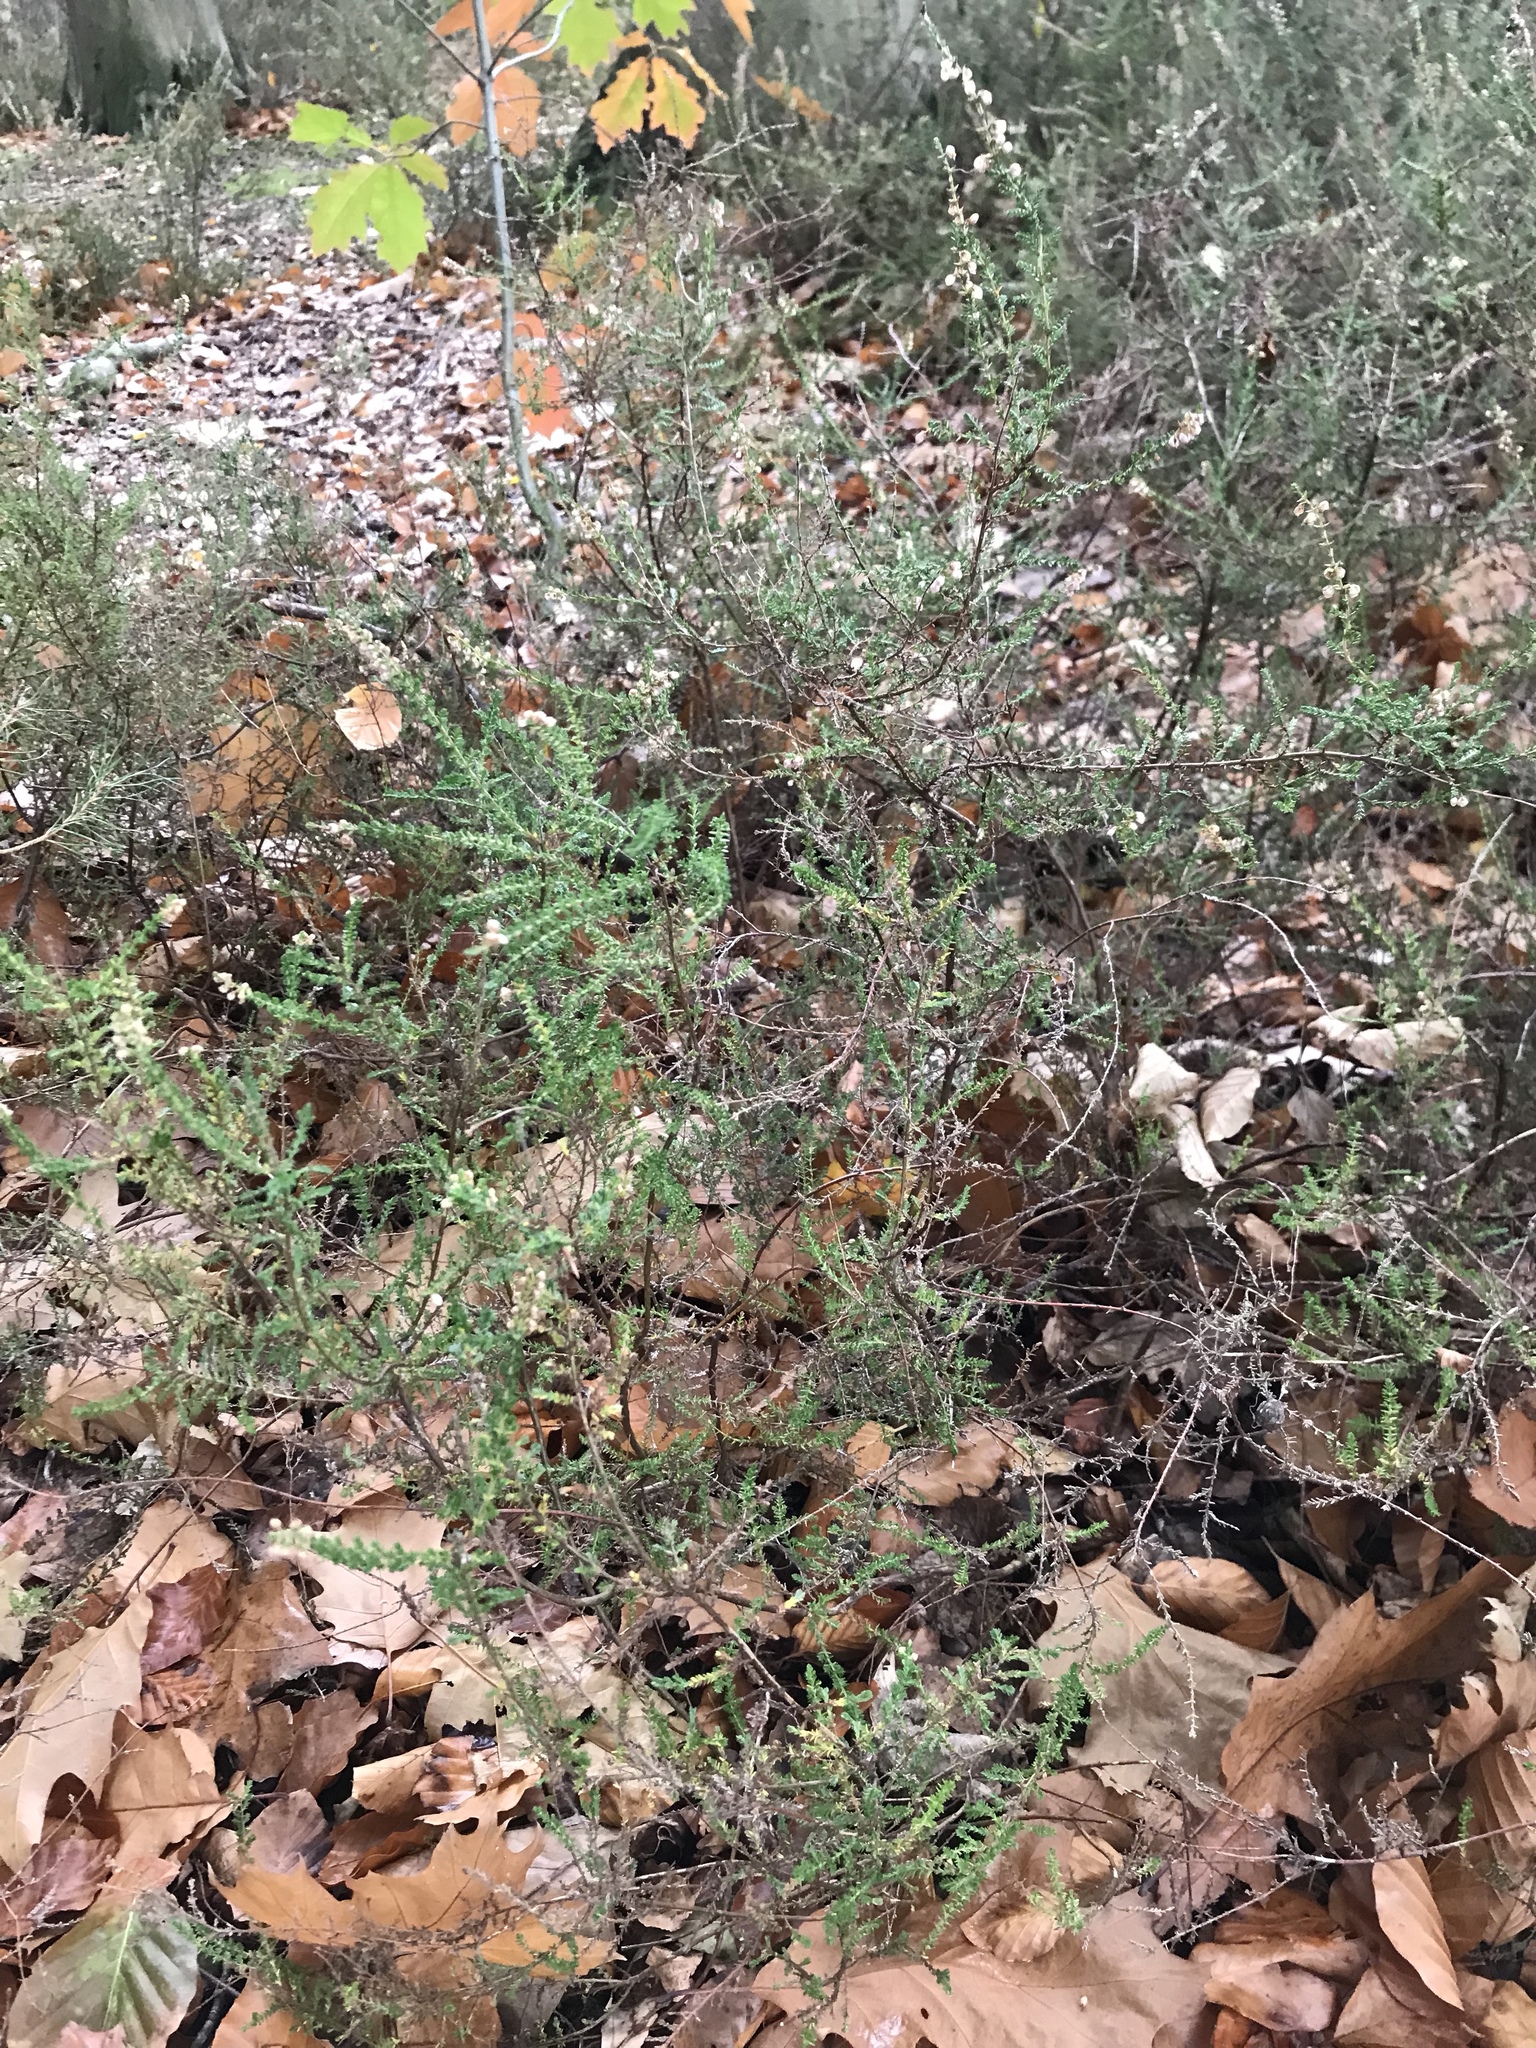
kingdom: Plantae
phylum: Tracheophyta
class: Magnoliopsida
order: Ericales
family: Ericaceae
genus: Calluna
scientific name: Calluna vulgaris
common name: Heather
